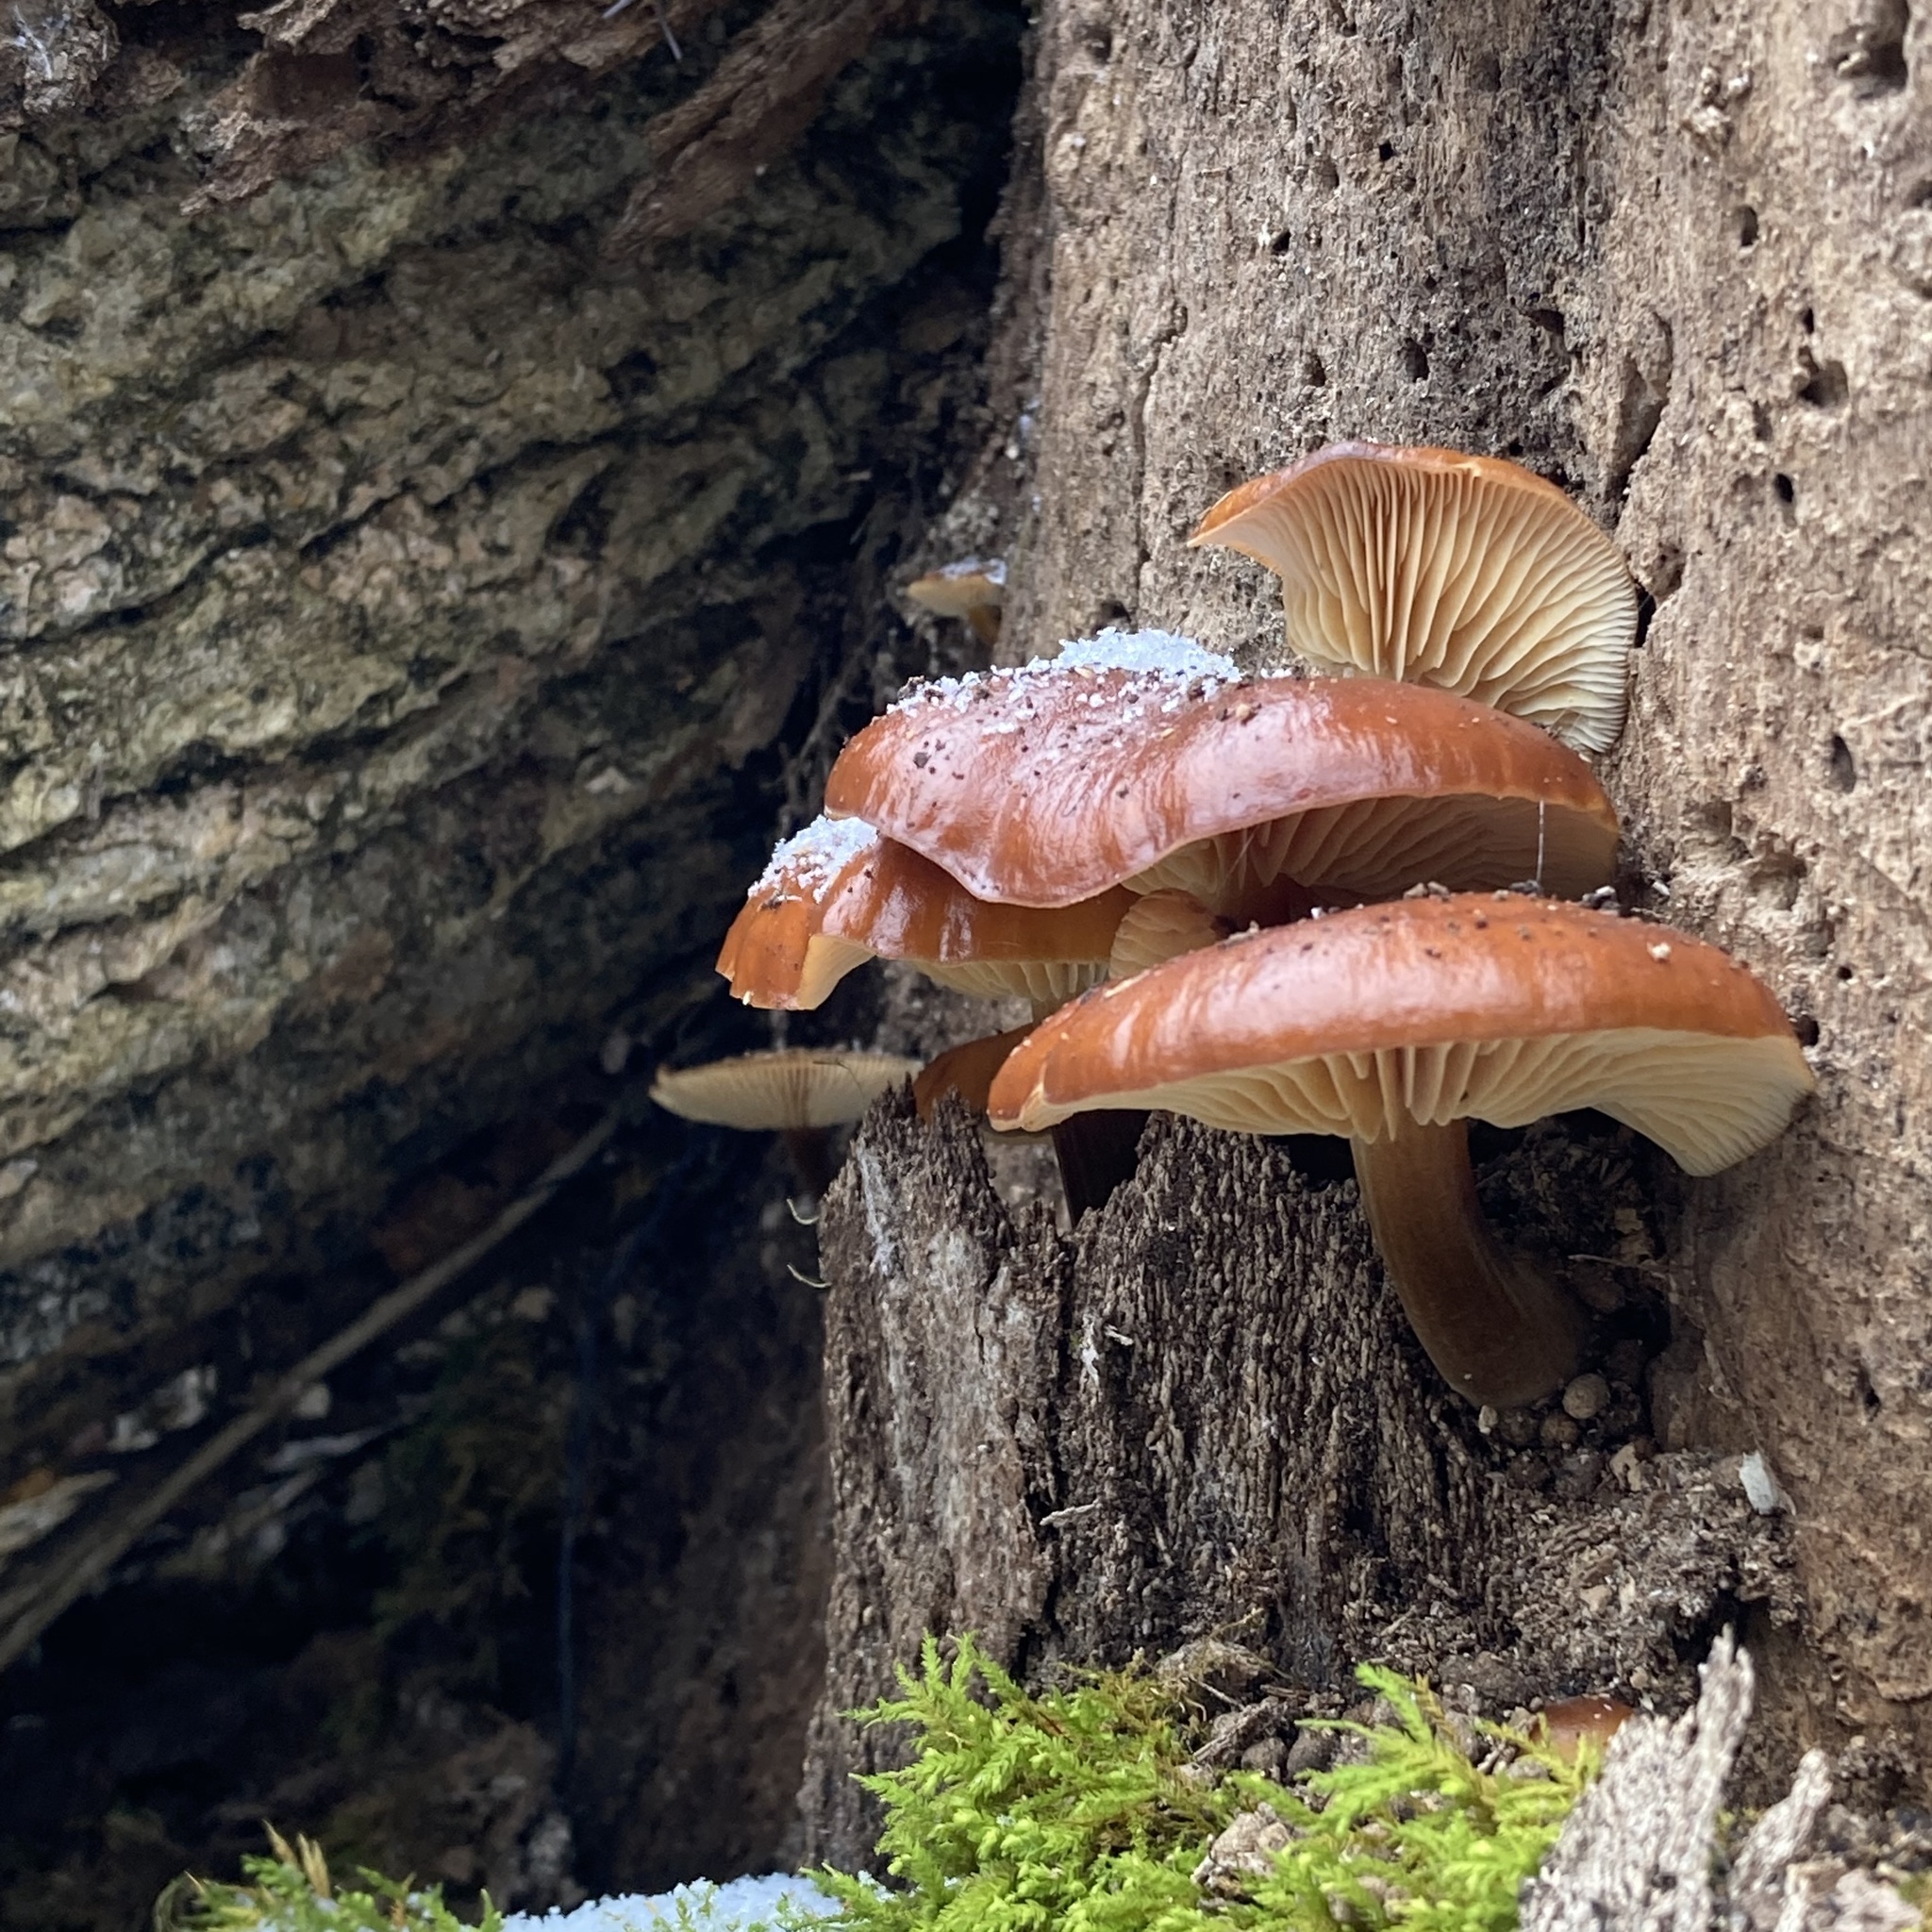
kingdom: Fungi
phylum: Basidiomycota
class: Agaricomycetes
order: Agaricales
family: Physalacriaceae
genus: Flammulina
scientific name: Flammulina velutipes
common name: Velvet shank
